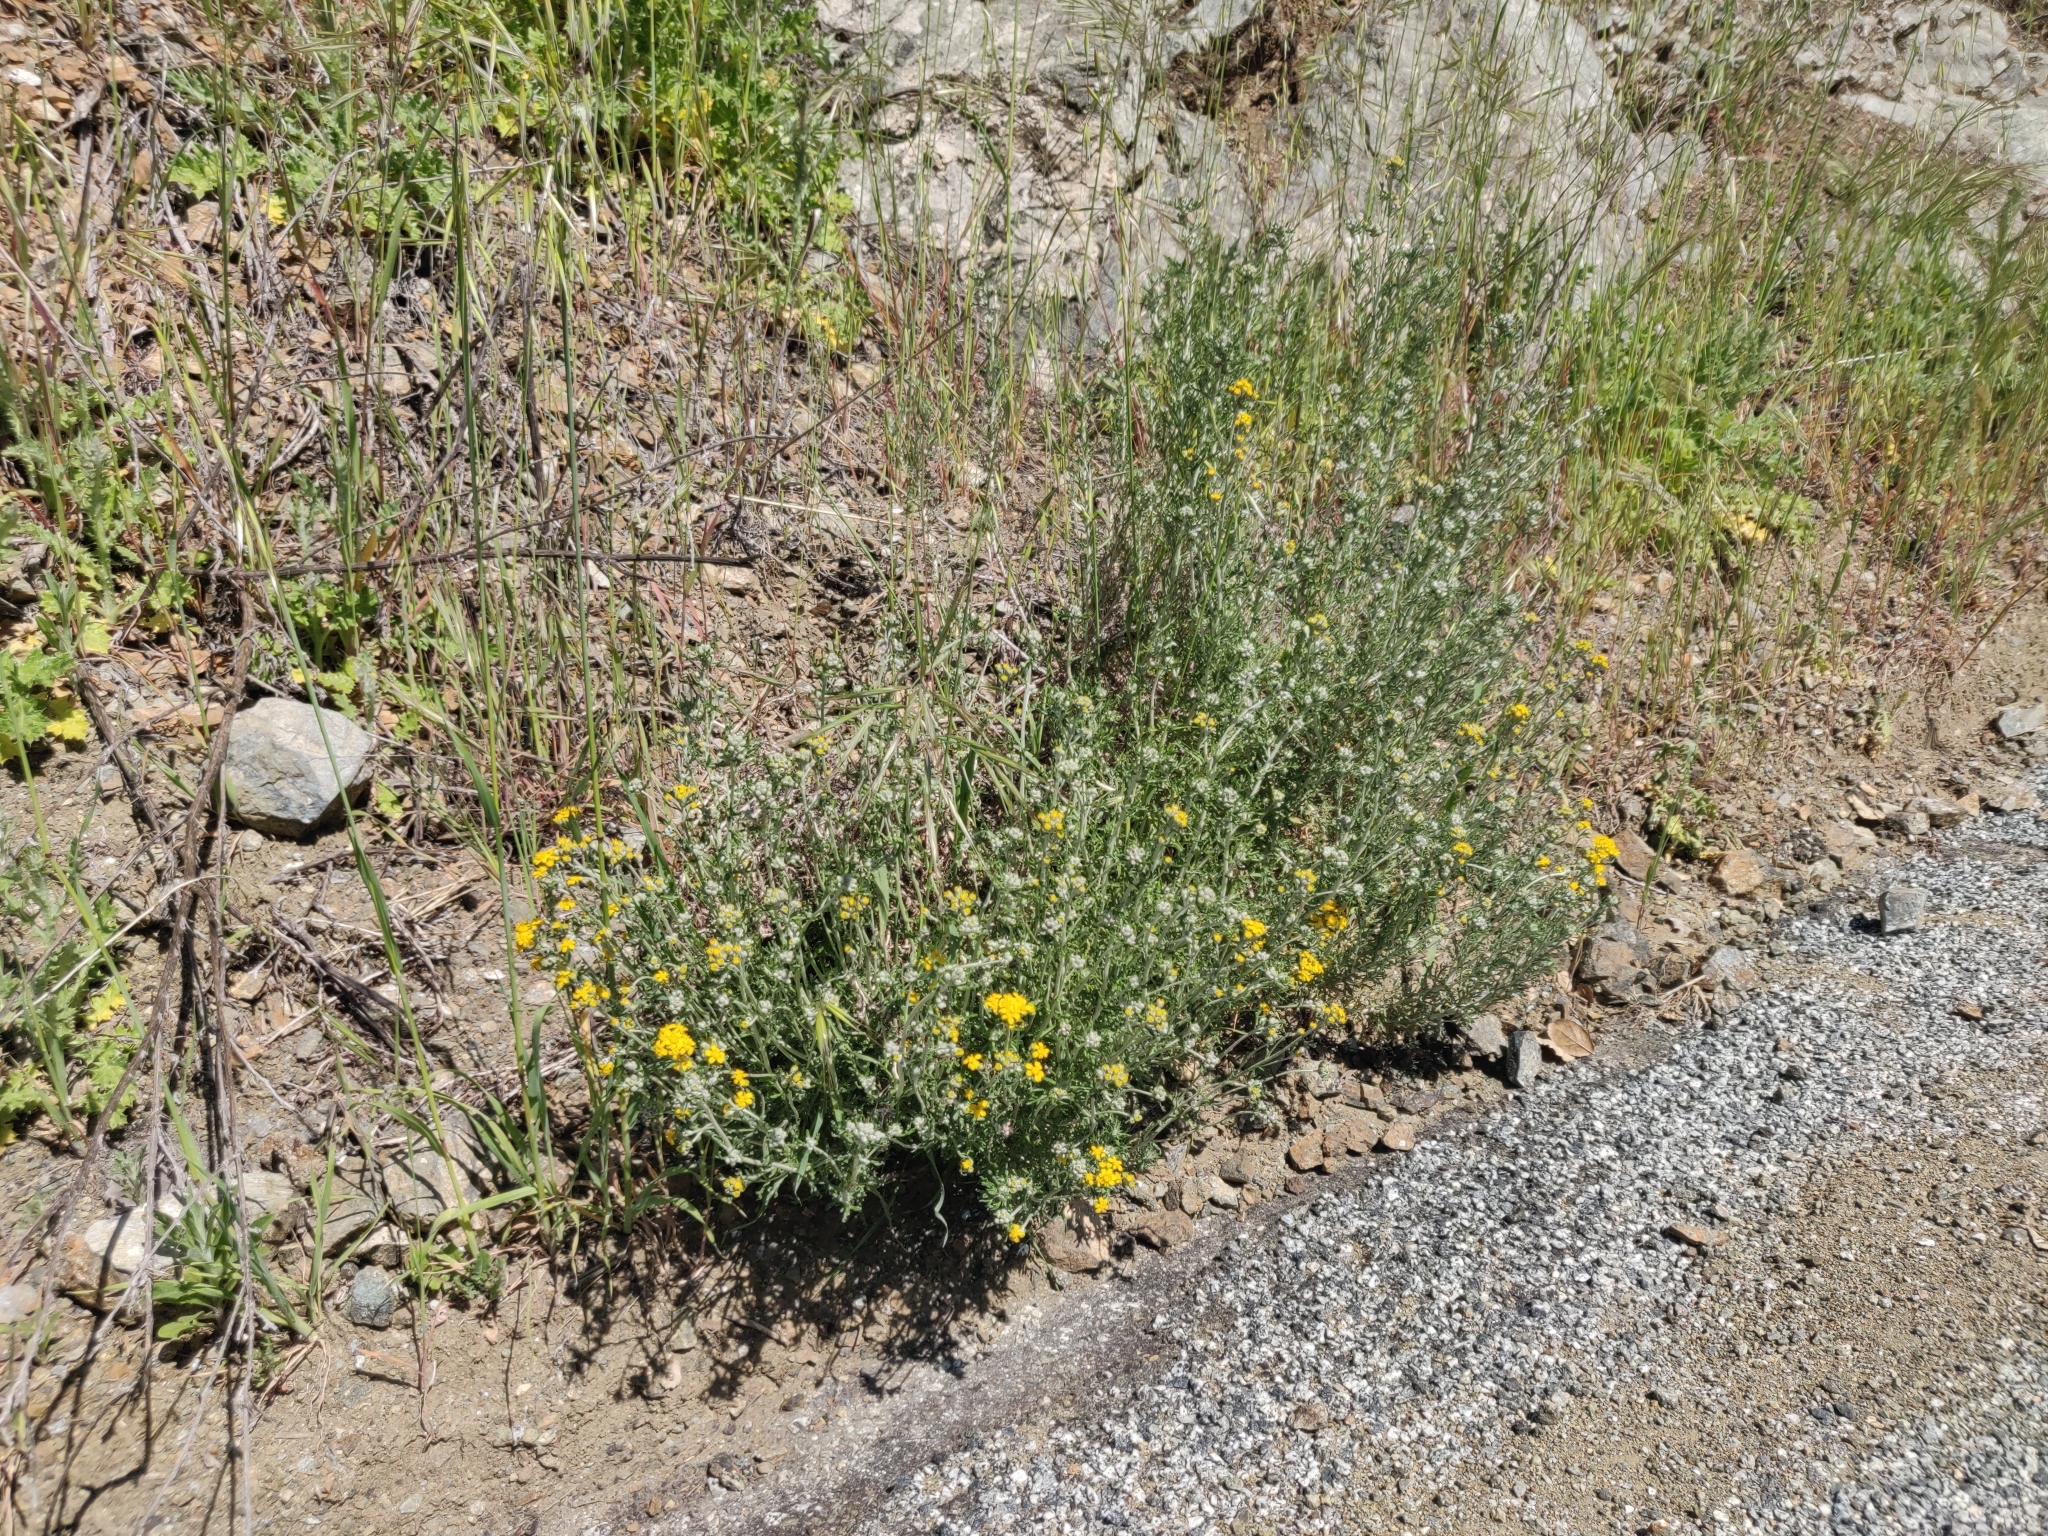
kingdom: Plantae
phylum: Tracheophyta
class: Magnoliopsida
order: Asterales
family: Asteraceae
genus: Eriophyllum
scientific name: Eriophyllum confertiflorum
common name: Golden-yarrow
